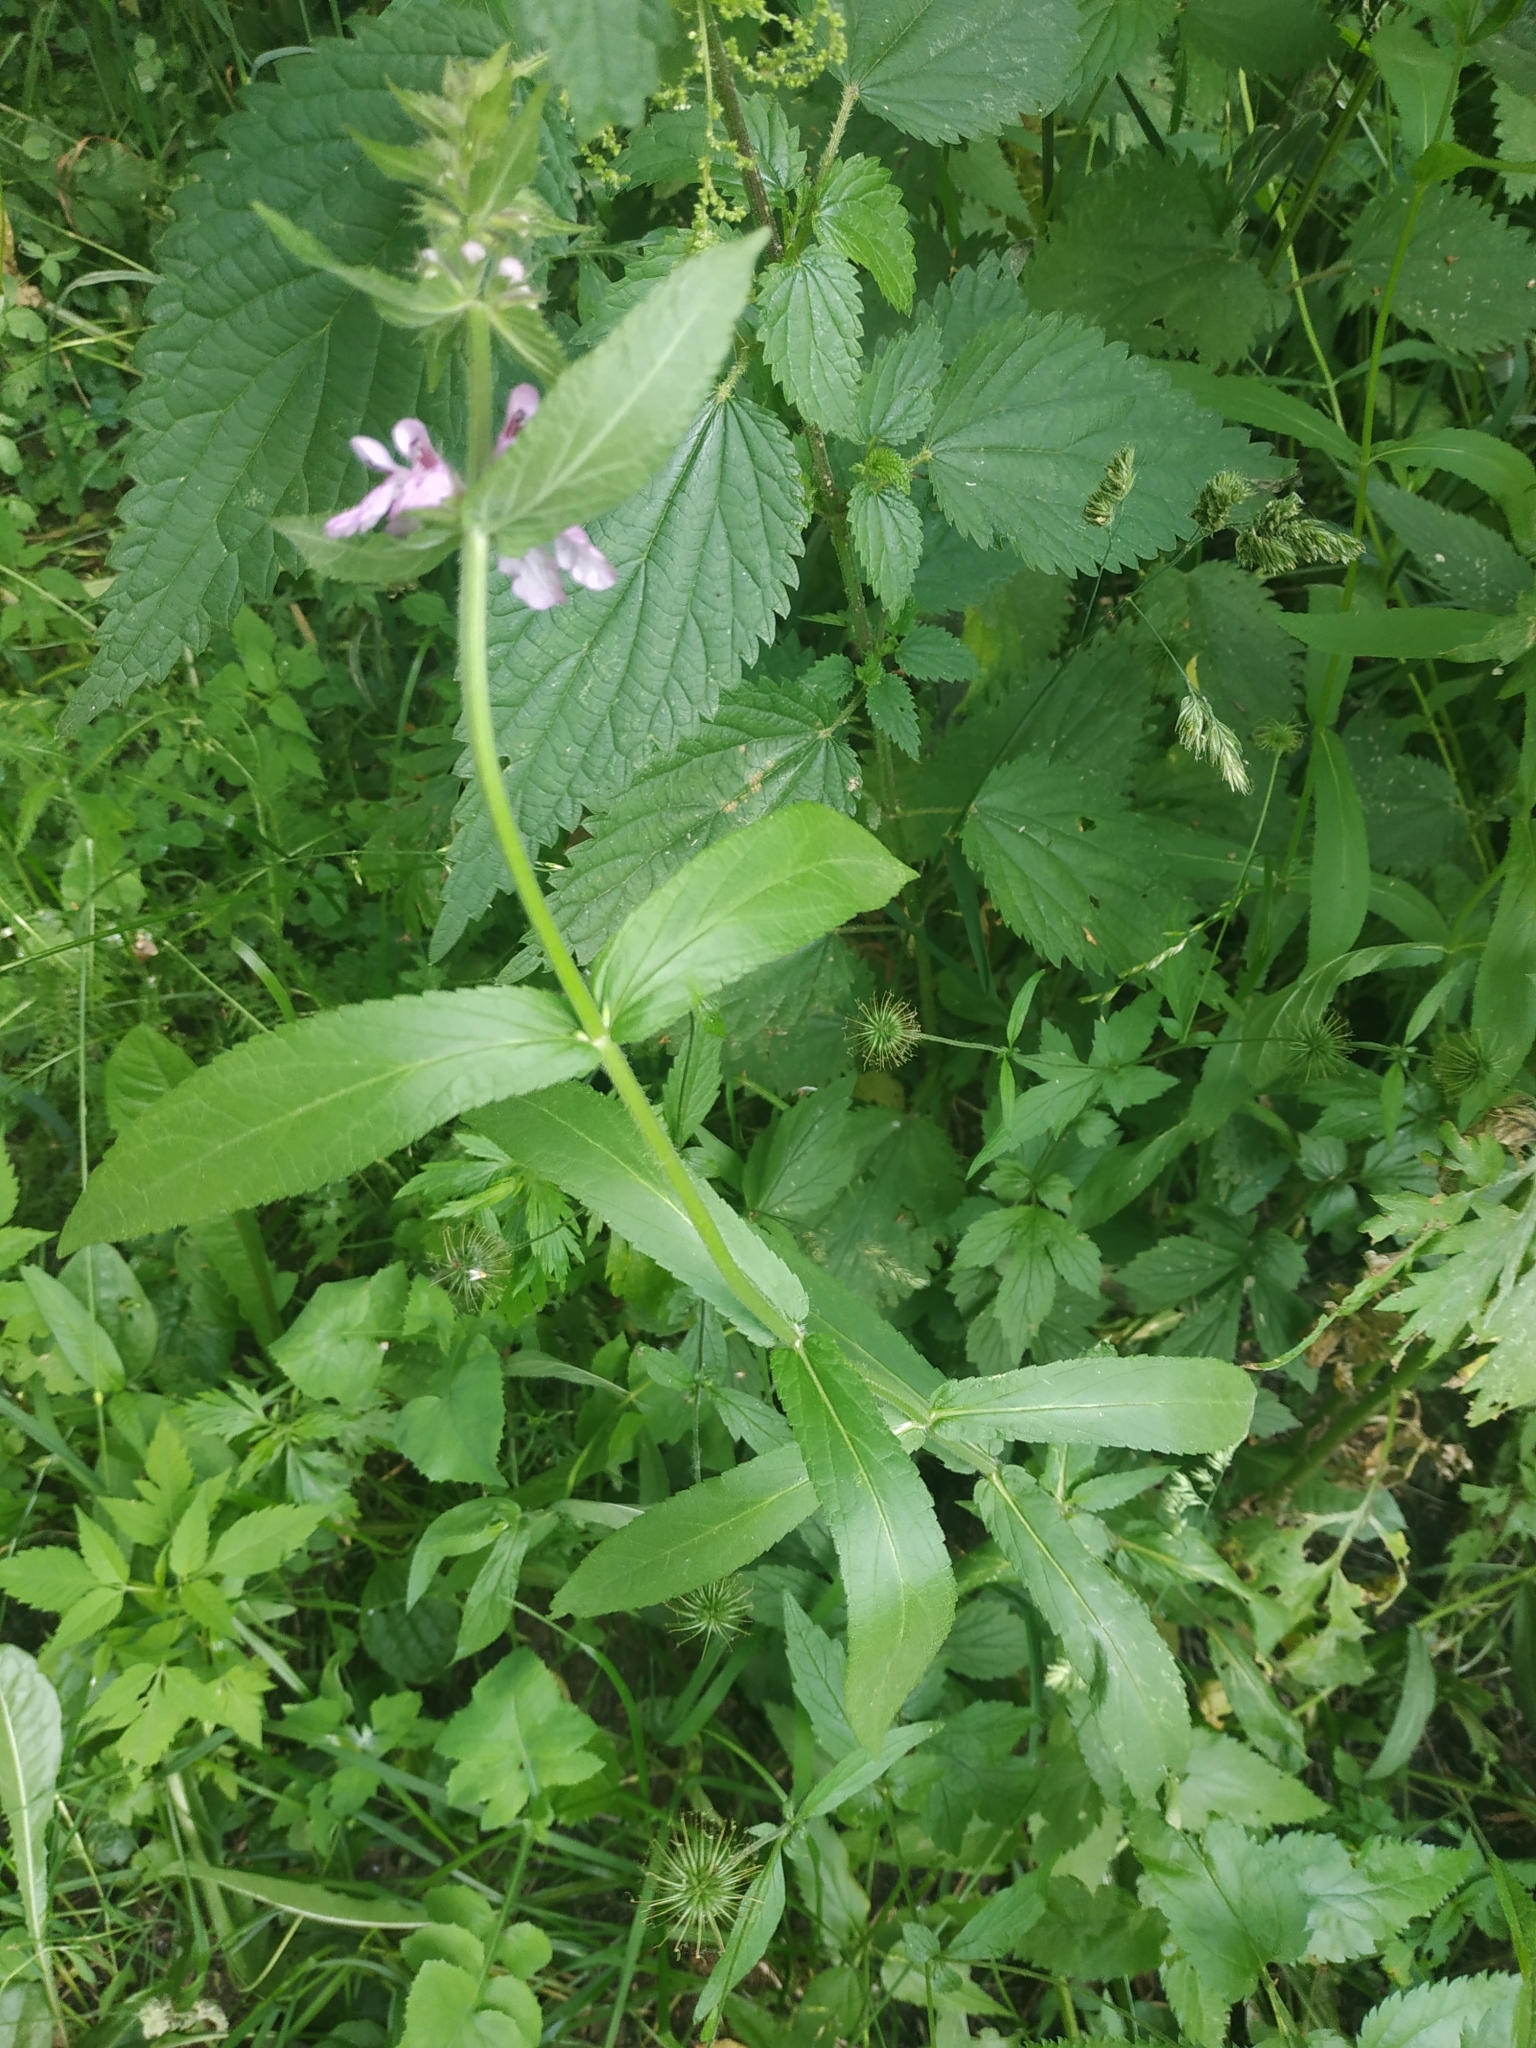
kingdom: Plantae
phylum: Tracheophyta
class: Magnoliopsida
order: Lamiales
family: Lamiaceae
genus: Stachys
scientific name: Stachys palustris
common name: Marsh woundwort
